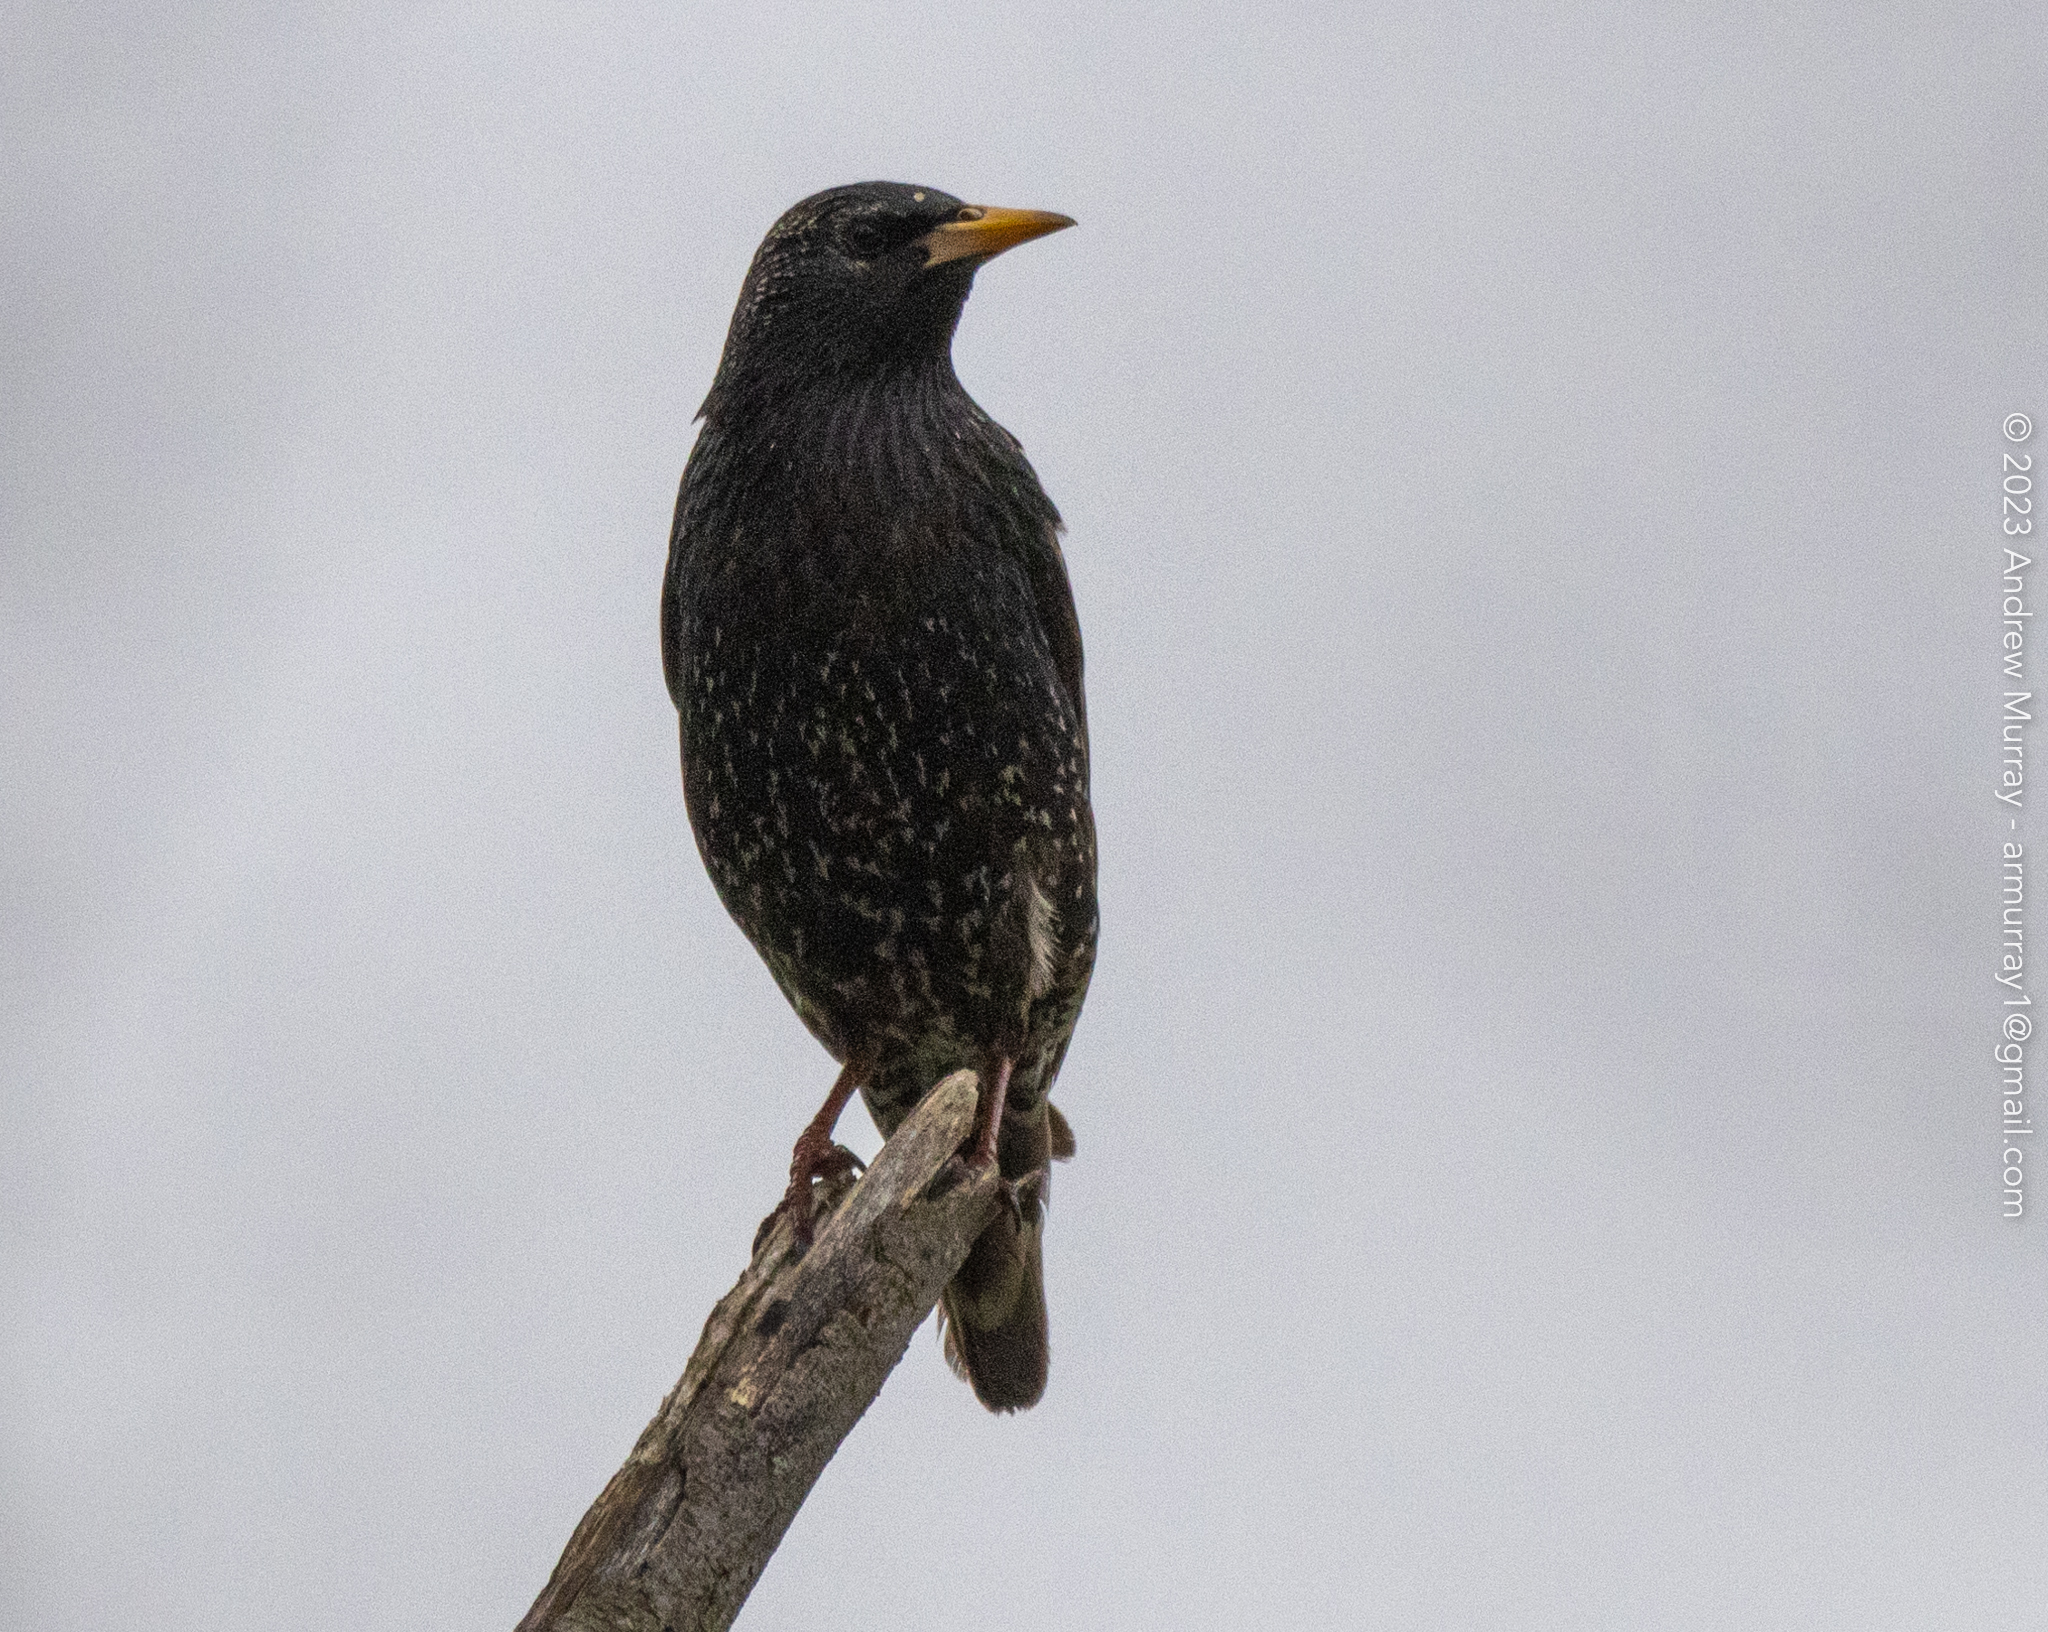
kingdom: Animalia
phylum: Chordata
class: Aves
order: Passeriformes
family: Sturnidae
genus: Sturnus
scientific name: Sturnus vulgaris
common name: Common starling
